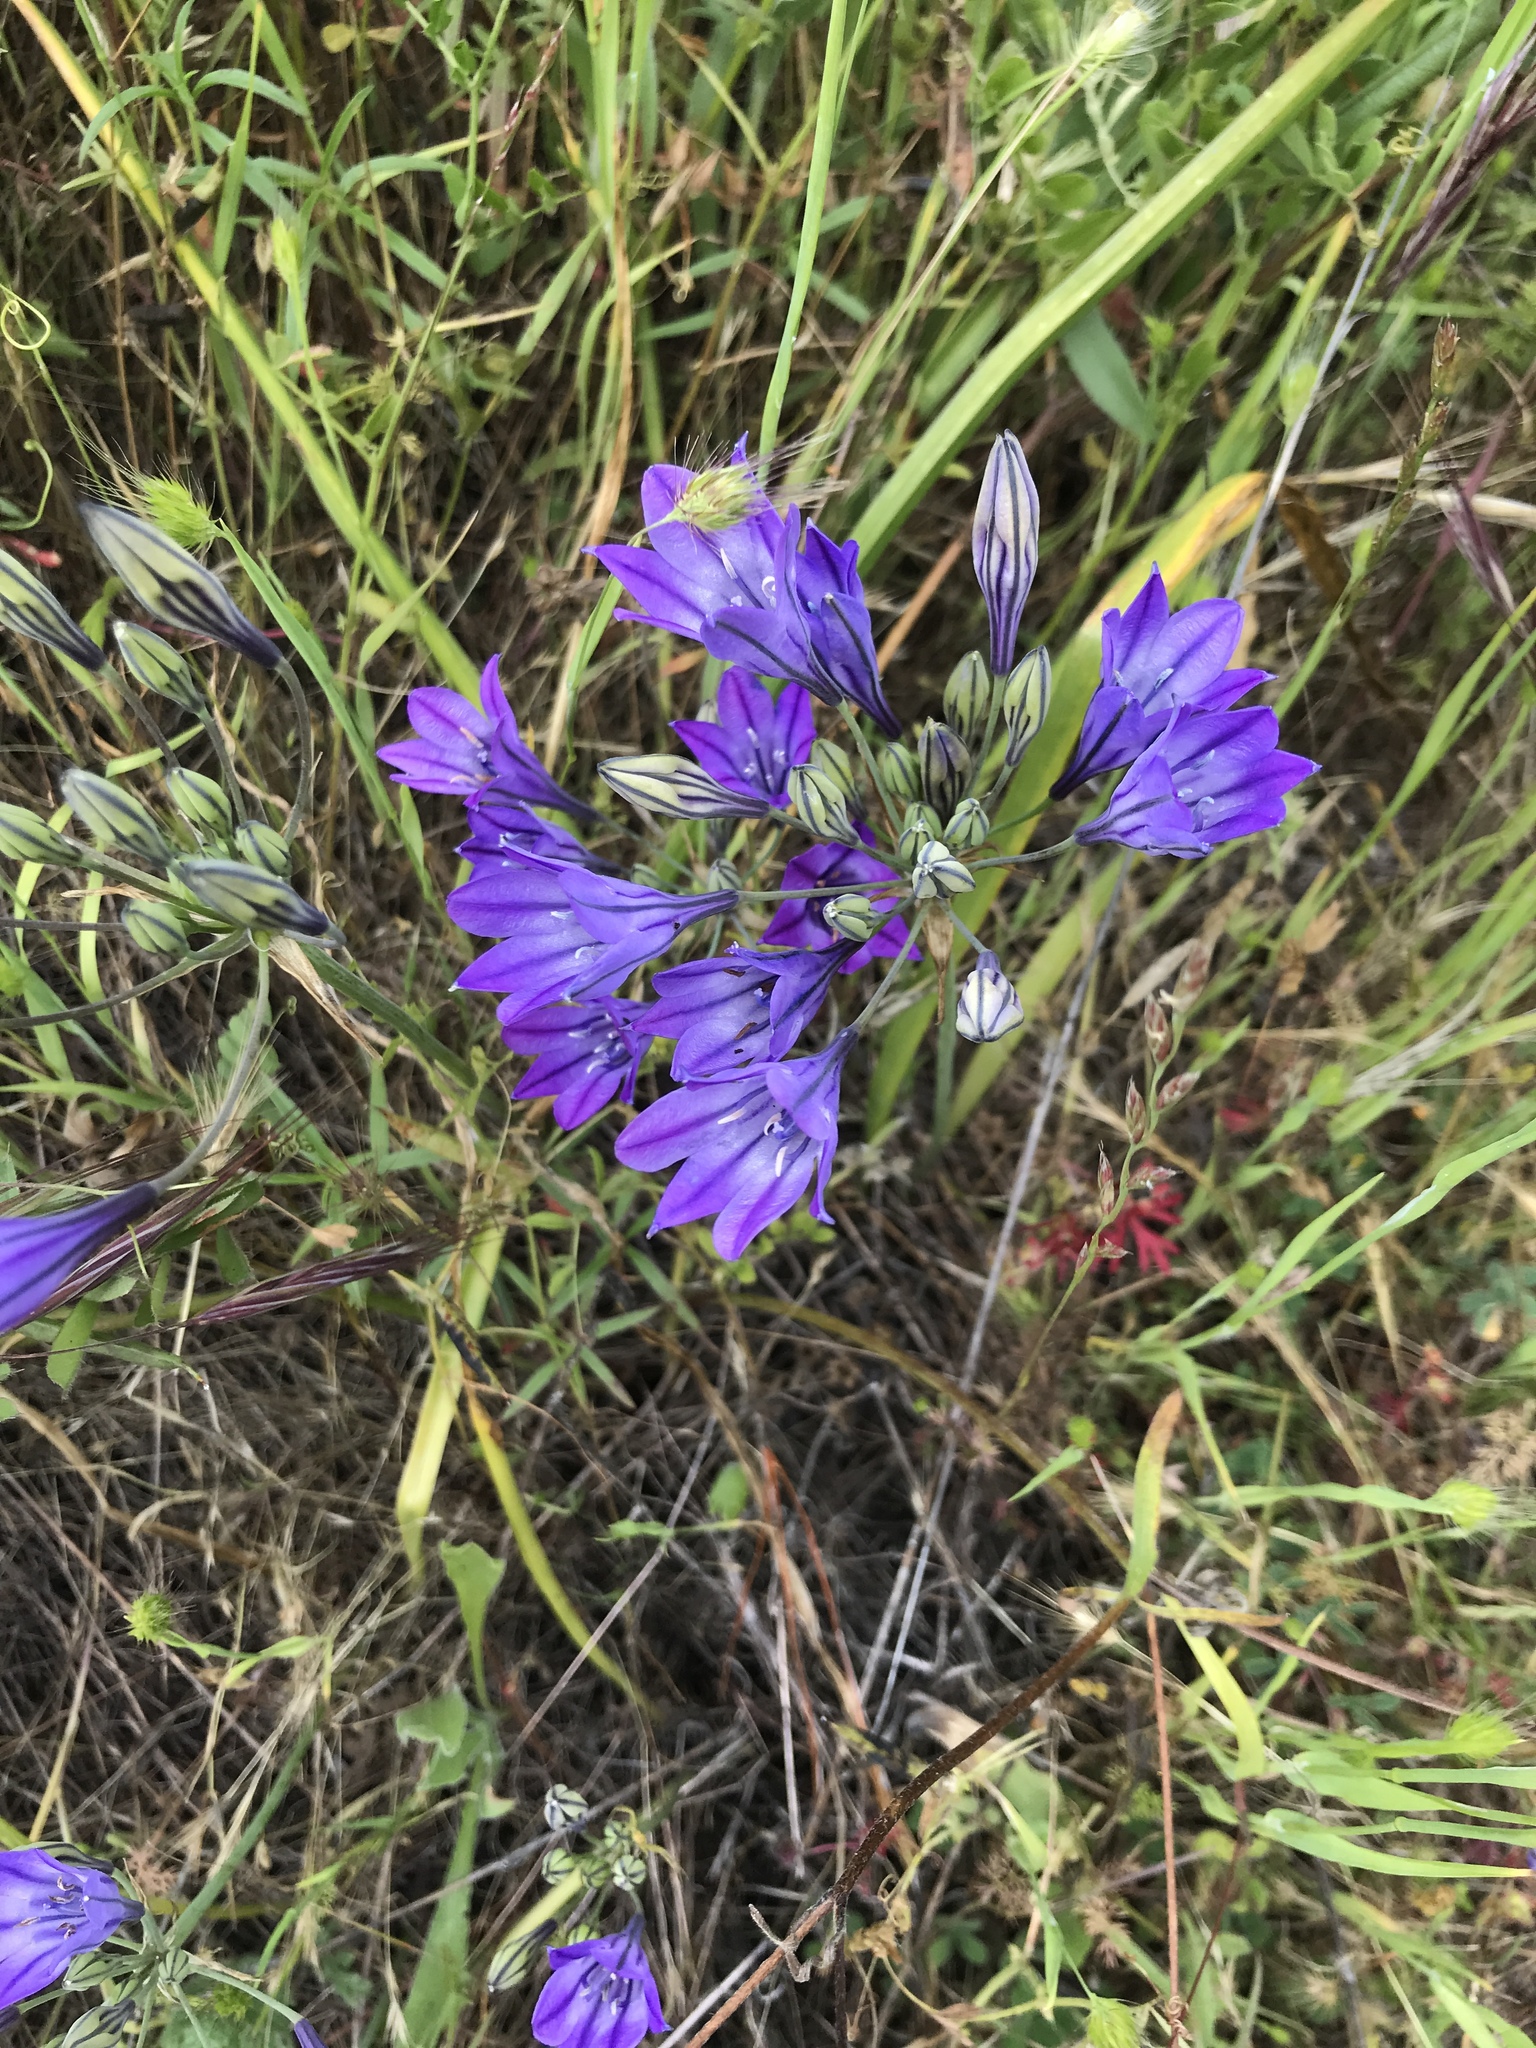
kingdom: Plantae
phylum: Tracheophyta
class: Liliopsida
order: Asparagales
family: Asparagaceae
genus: Triteleia
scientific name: Triteleia laxa
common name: Triplet-lily
